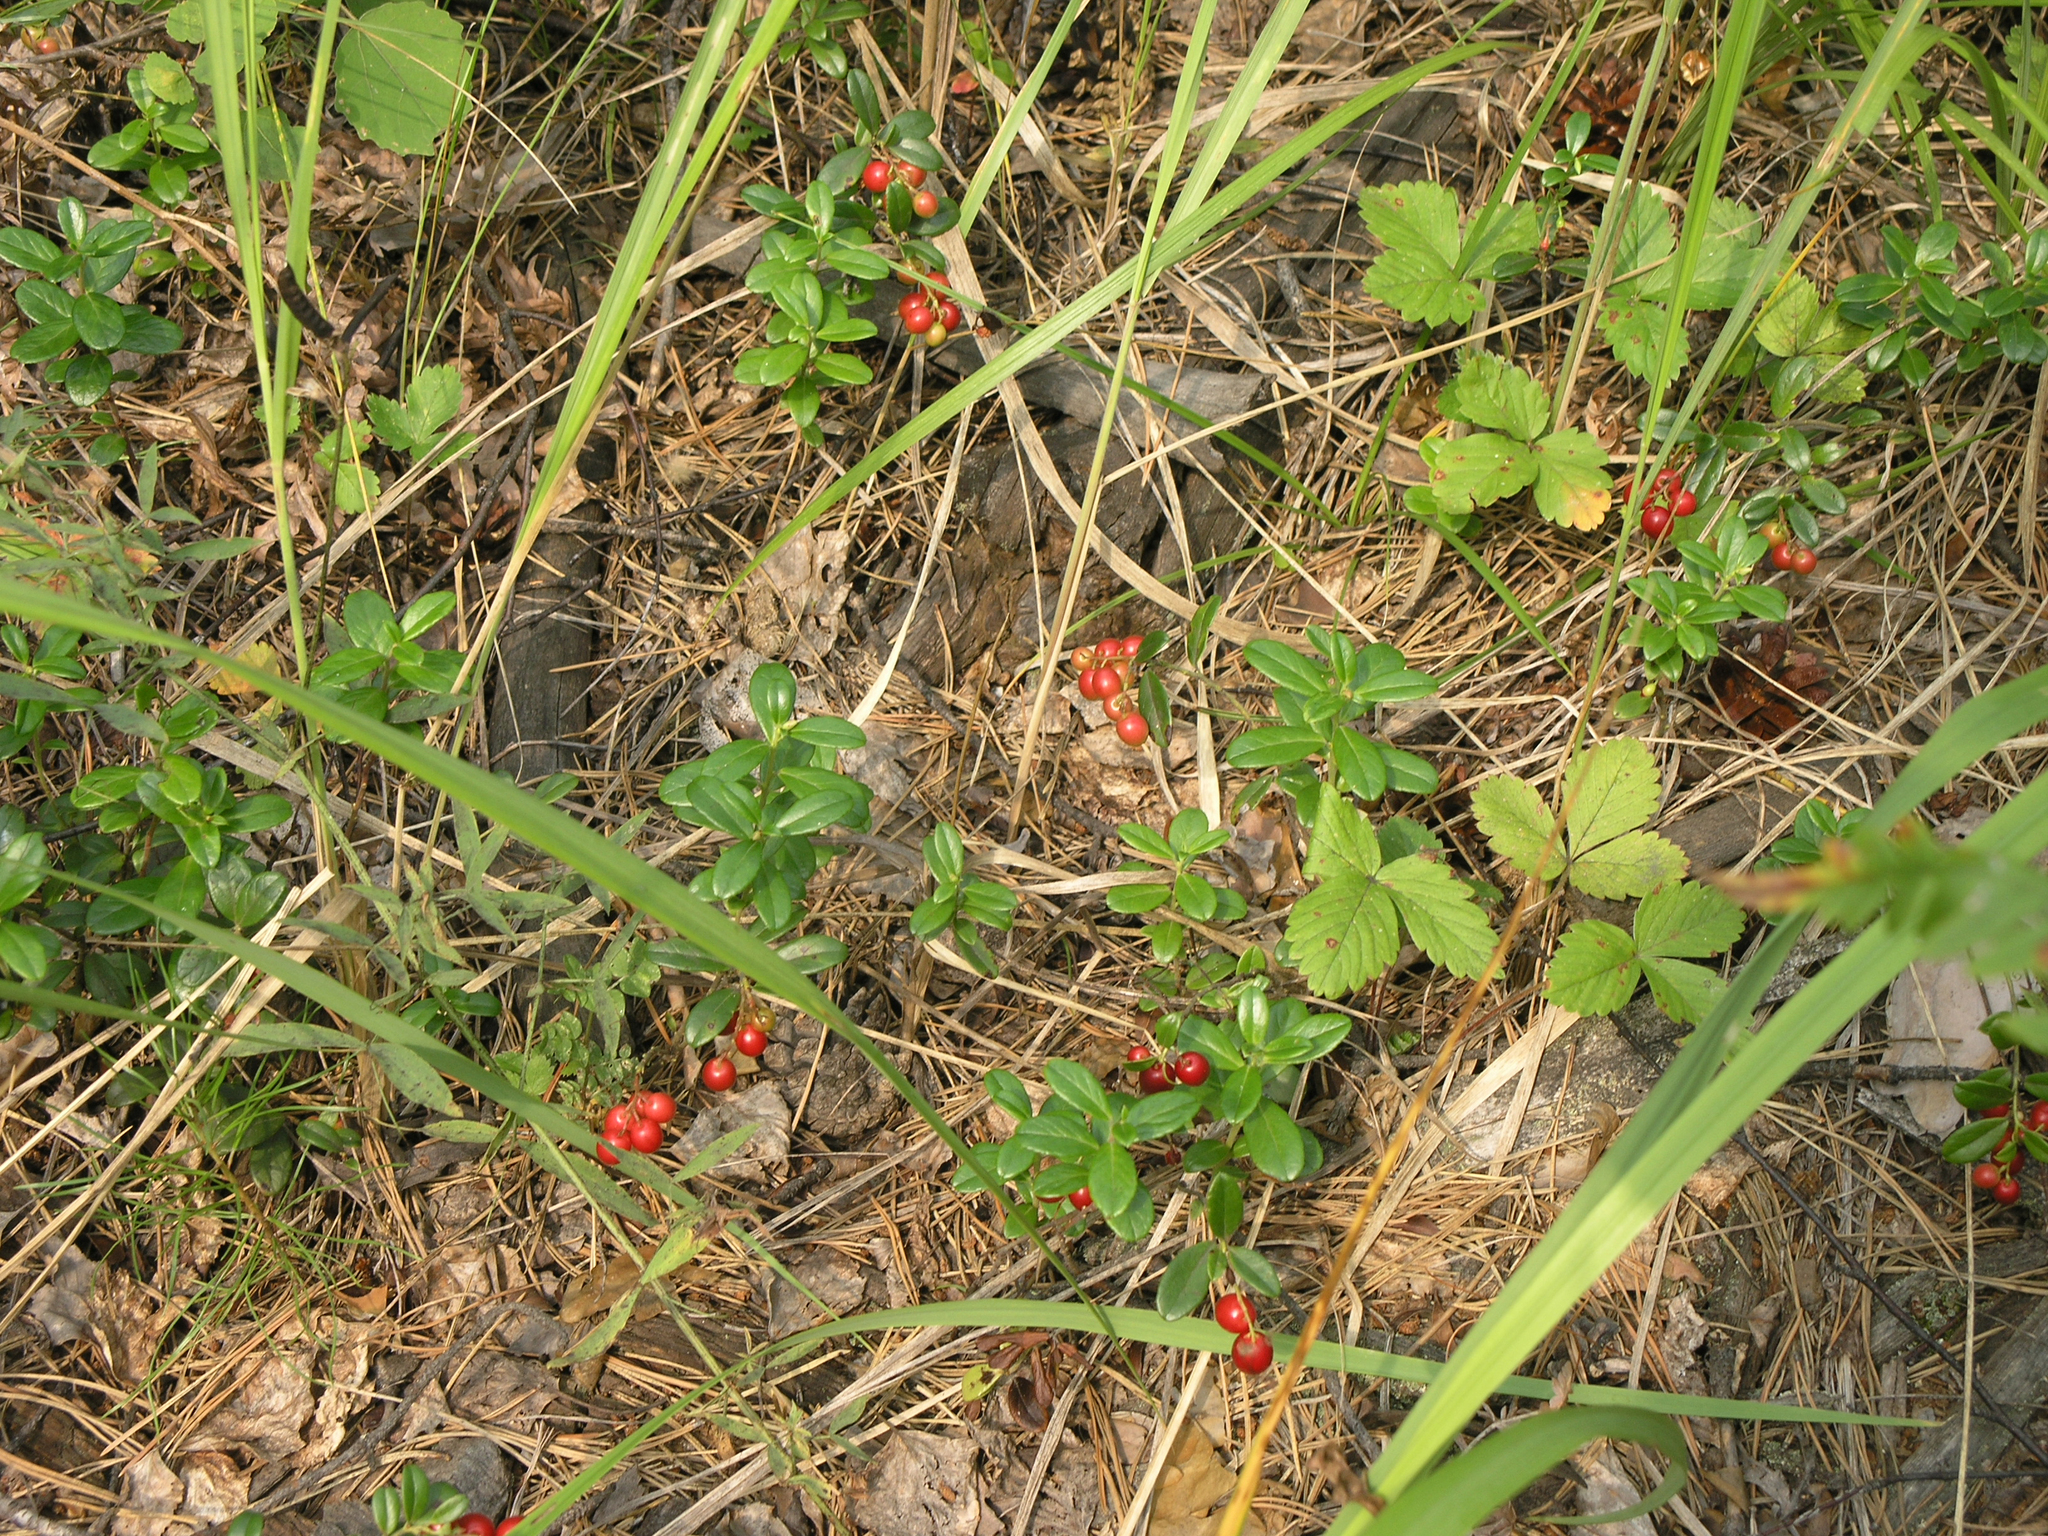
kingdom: Plantae
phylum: Tracheophyta
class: Magnoliopsida
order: Ericales
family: Ericaceae
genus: Vaccinium
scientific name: Vaccinium vitis-idaea
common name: Cowberry
